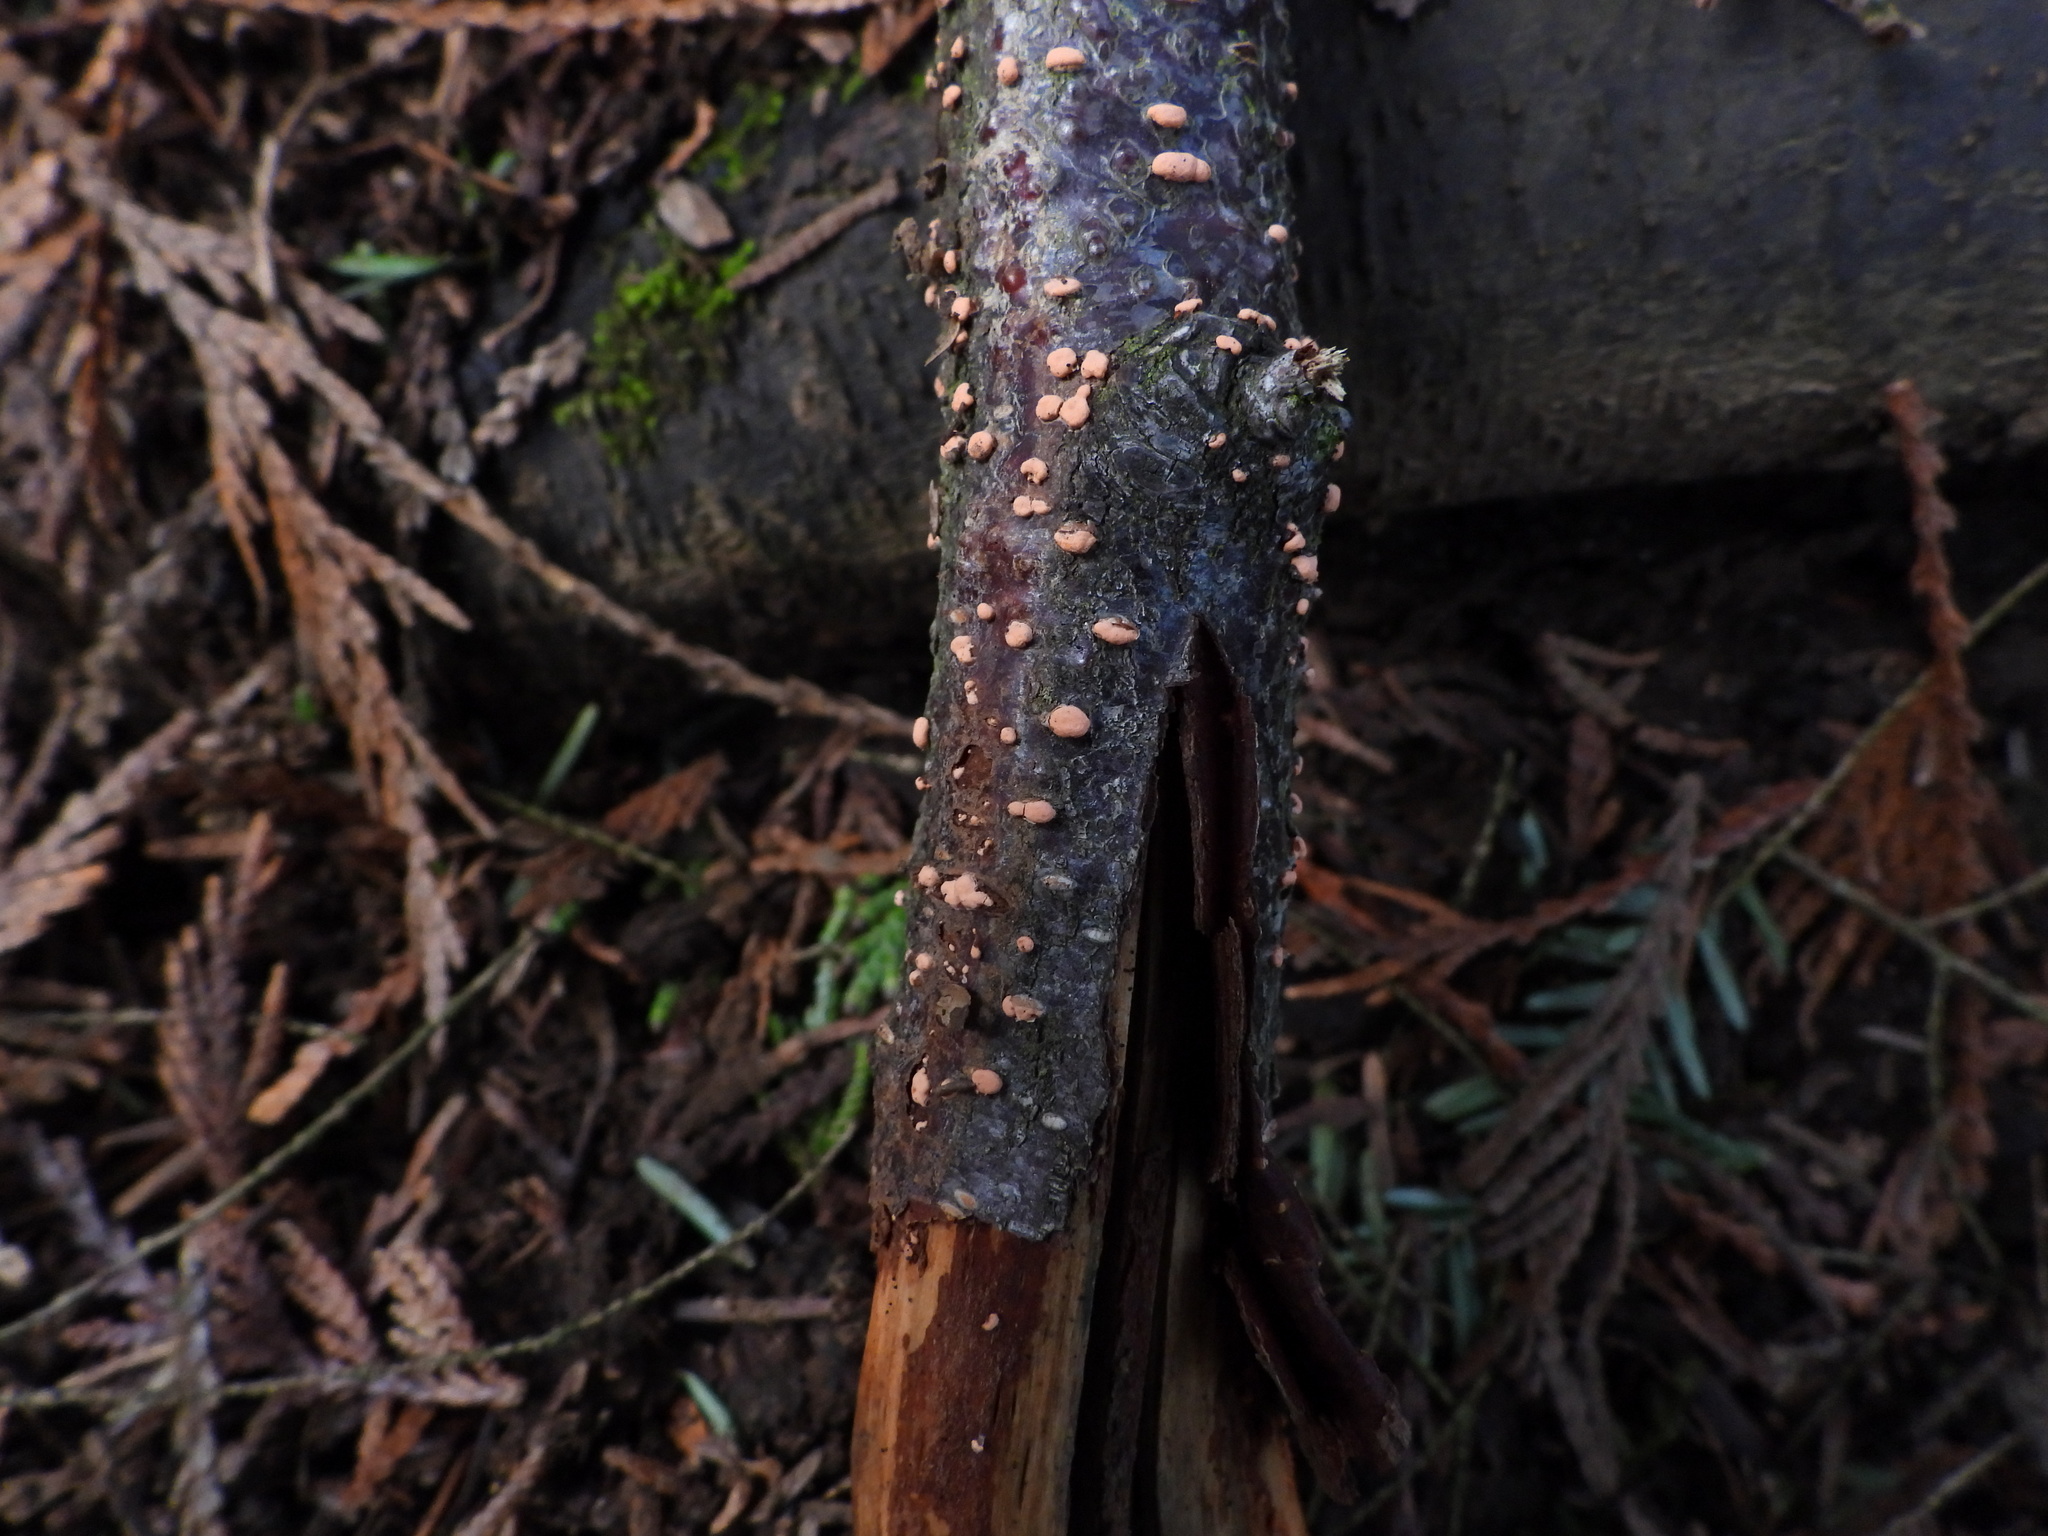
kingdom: Fungi
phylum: Ascomycota
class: Sordariomycetes
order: Hypocreales
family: Nectriaceae
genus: Nectria
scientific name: Nectria cinnabarina
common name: Coral spot
